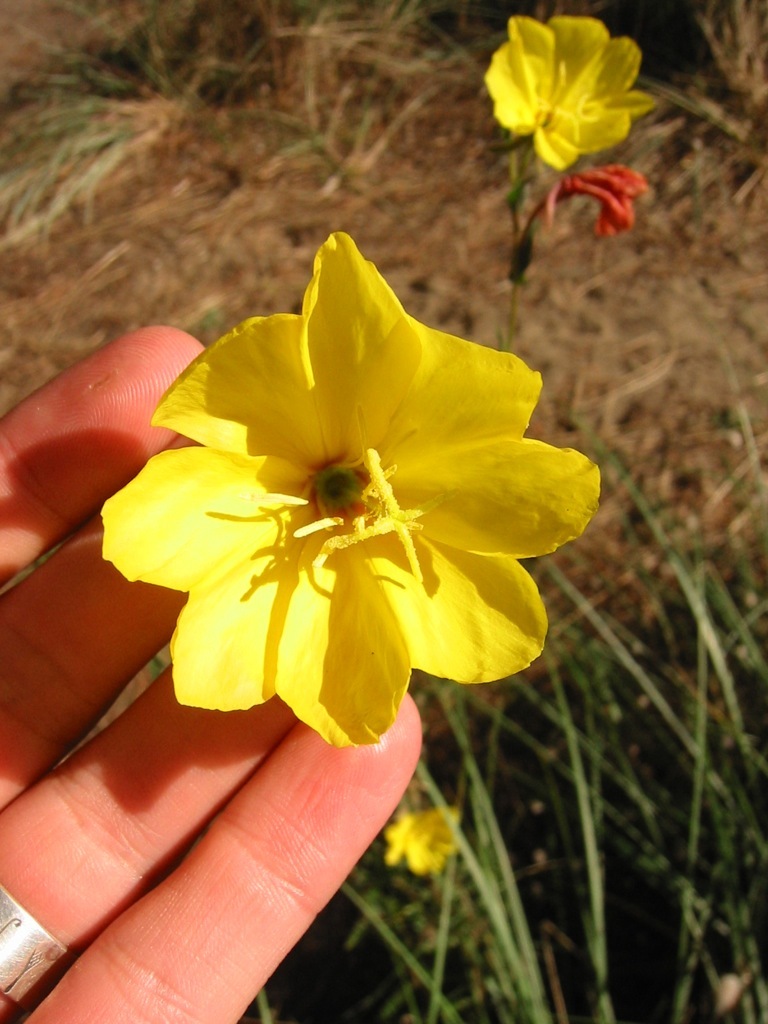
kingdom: Plantae
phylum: Tracheophyta
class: Magnoliopsida
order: Myrtales
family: Onagraceae
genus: Oenothera
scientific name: Oenothera stricta
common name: Fragrant evening-primrose
